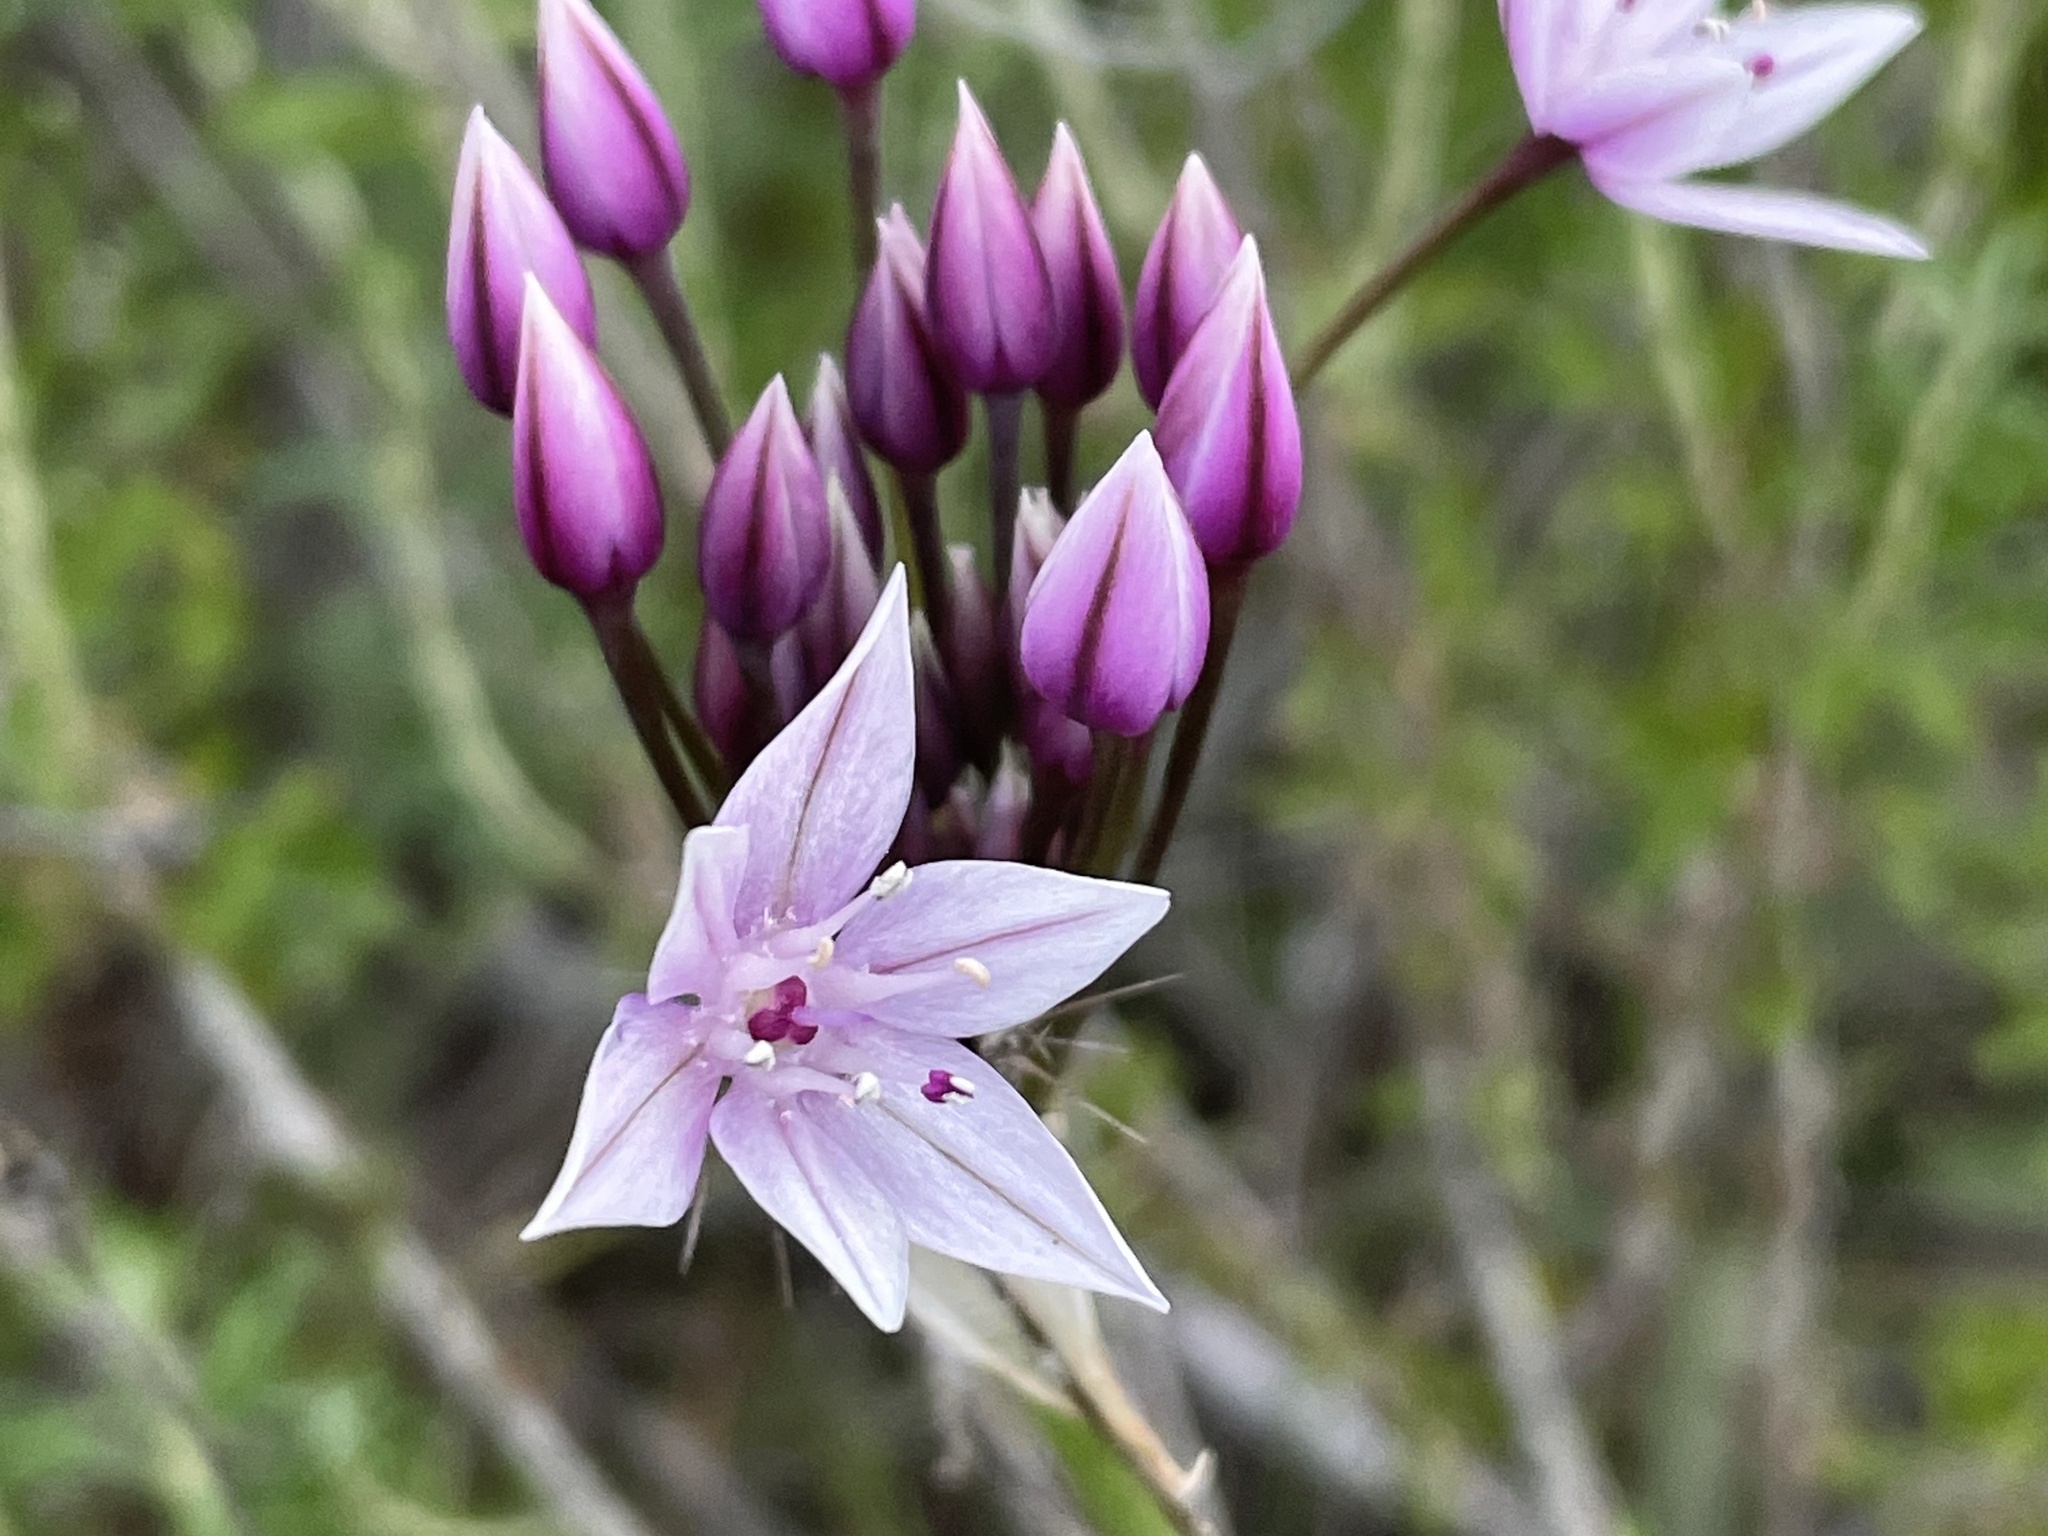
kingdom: Plantae
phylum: Tracheophyta
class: Liliopsida
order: Asparagales
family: Amaryllidaceae
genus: Allium
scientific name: Allium praecox
